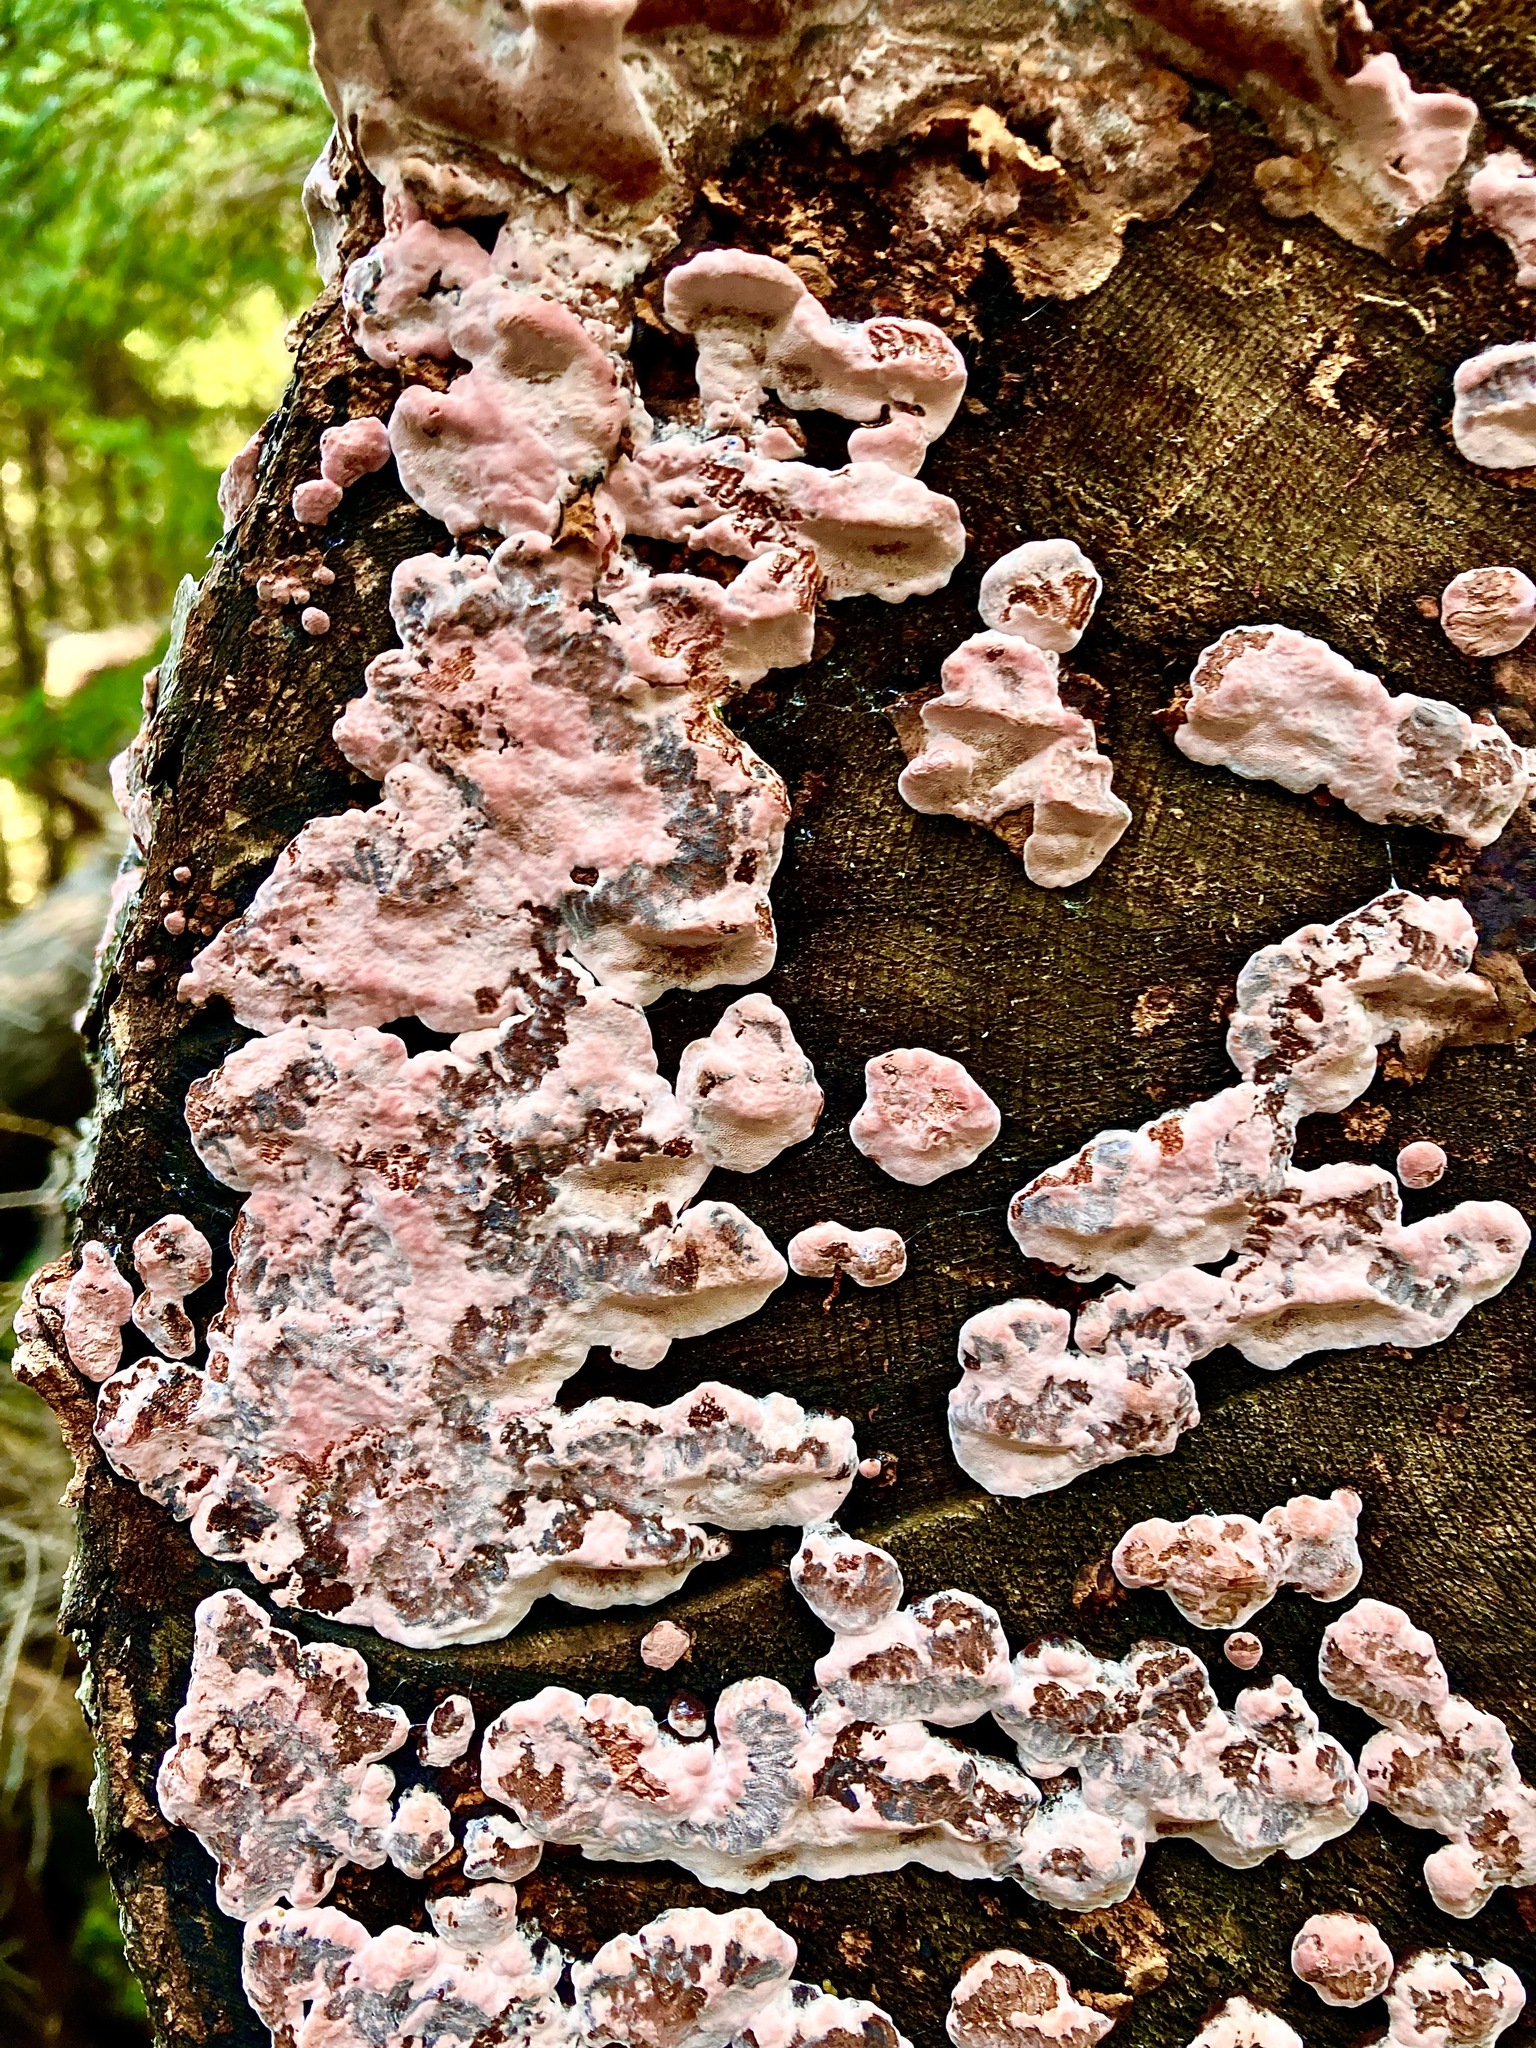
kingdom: Fungi
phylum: Basidiomycota
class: Agaricomycetes
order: Polyporales
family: Fomitopsidaceae
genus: Rhodofomes
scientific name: Rhodofomes cajanderi
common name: Rosy conk
